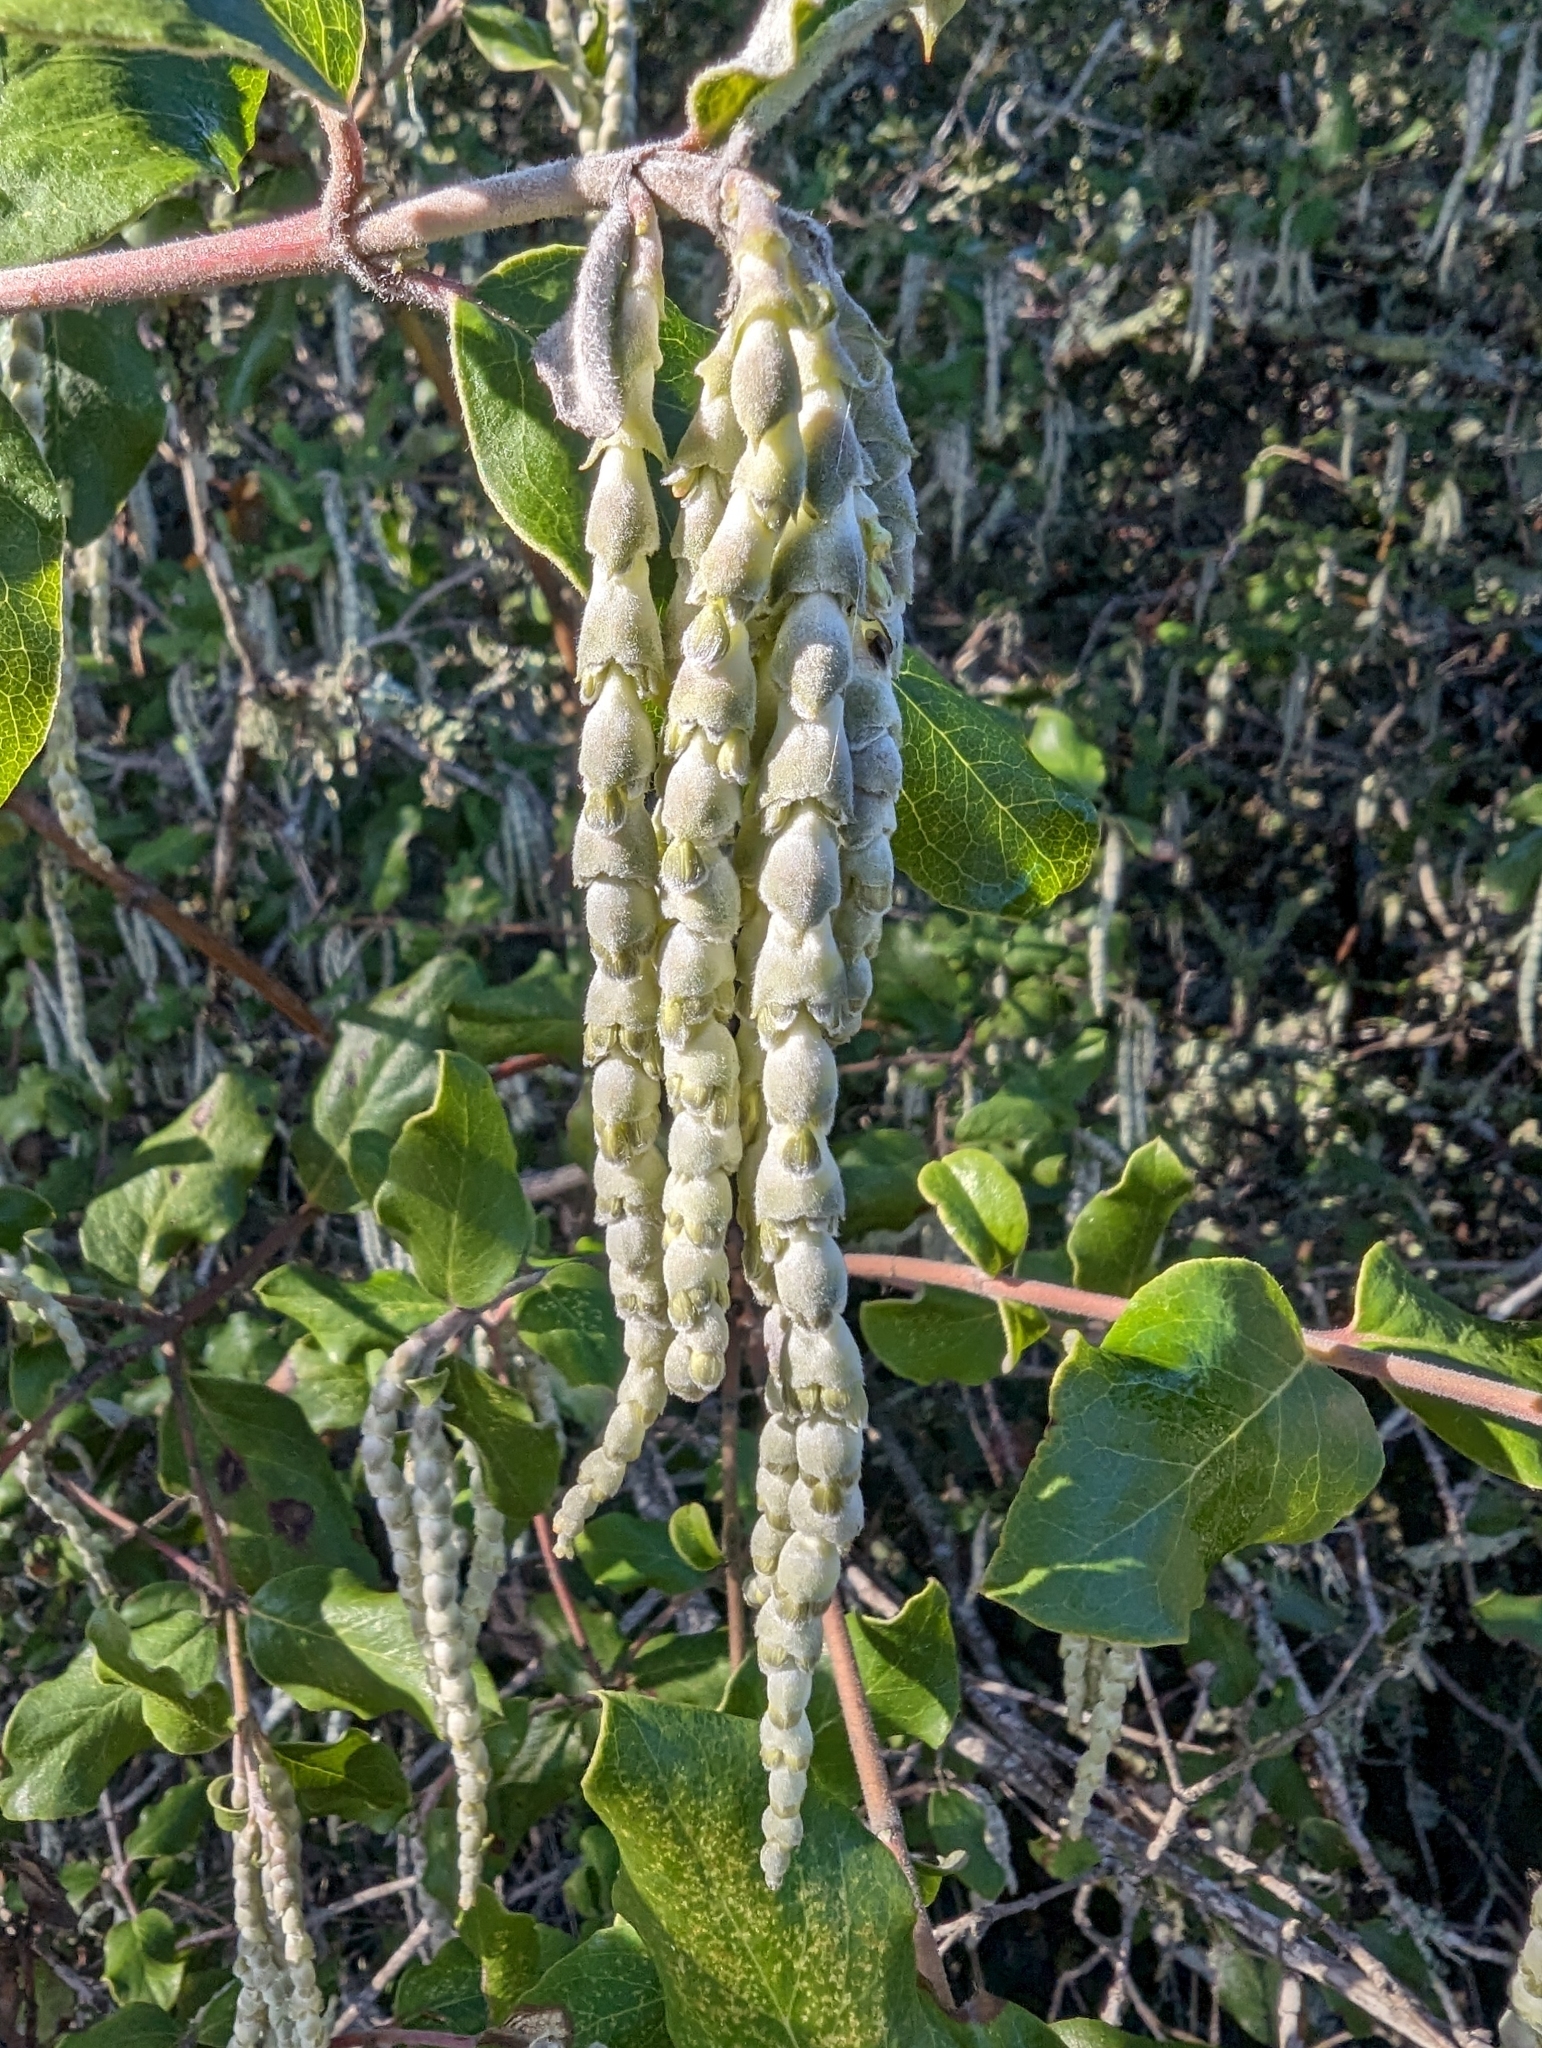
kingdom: Plantae
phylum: Tracheophyta
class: Magnoliopsida
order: Garryales
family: Garryaceae
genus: Garrya
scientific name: Garrya elliptica
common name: Silk-tassel
